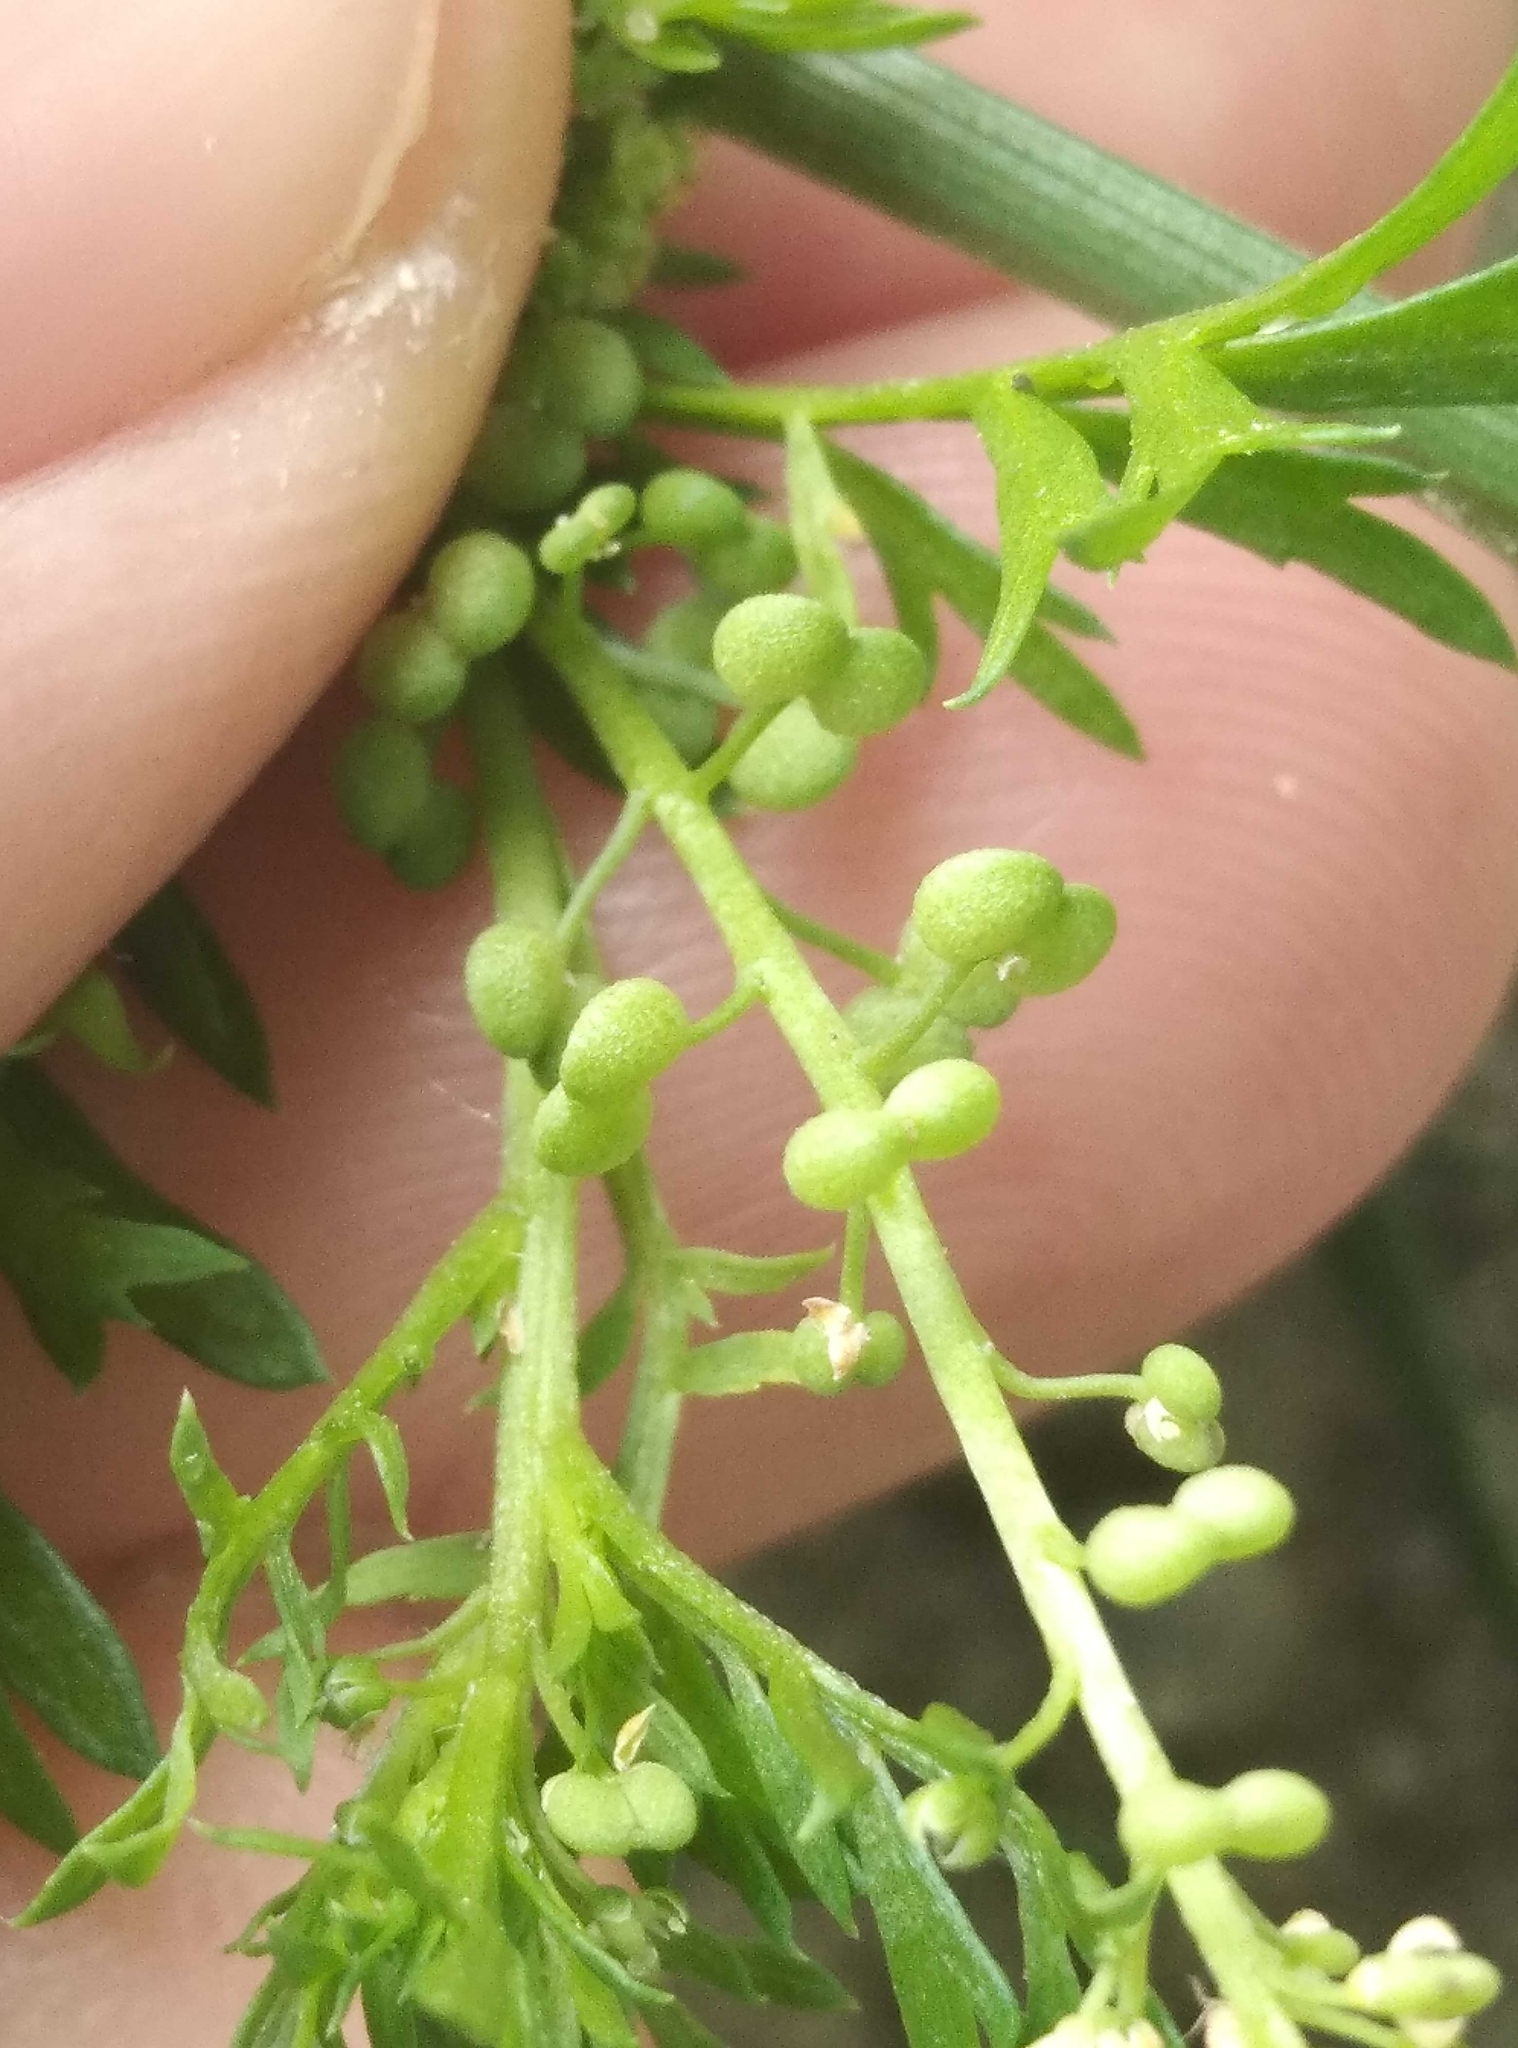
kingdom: Plantae
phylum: Tracheophyta
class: Magnoliopsida
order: Brassicales
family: Brassicaceae
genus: Lepidium
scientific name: Lepidium didymum
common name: Lesser swinecress
